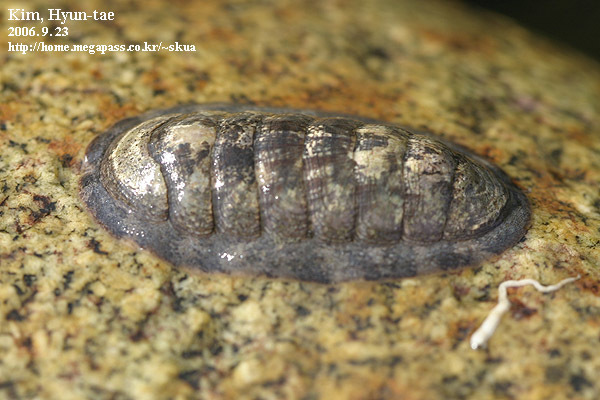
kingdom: Animalia
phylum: Mollusca
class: Polyplacophora
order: Chitonida
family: Ischnochitonidae
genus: Ischnochiton
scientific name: Ischnochiton hakodadensis
